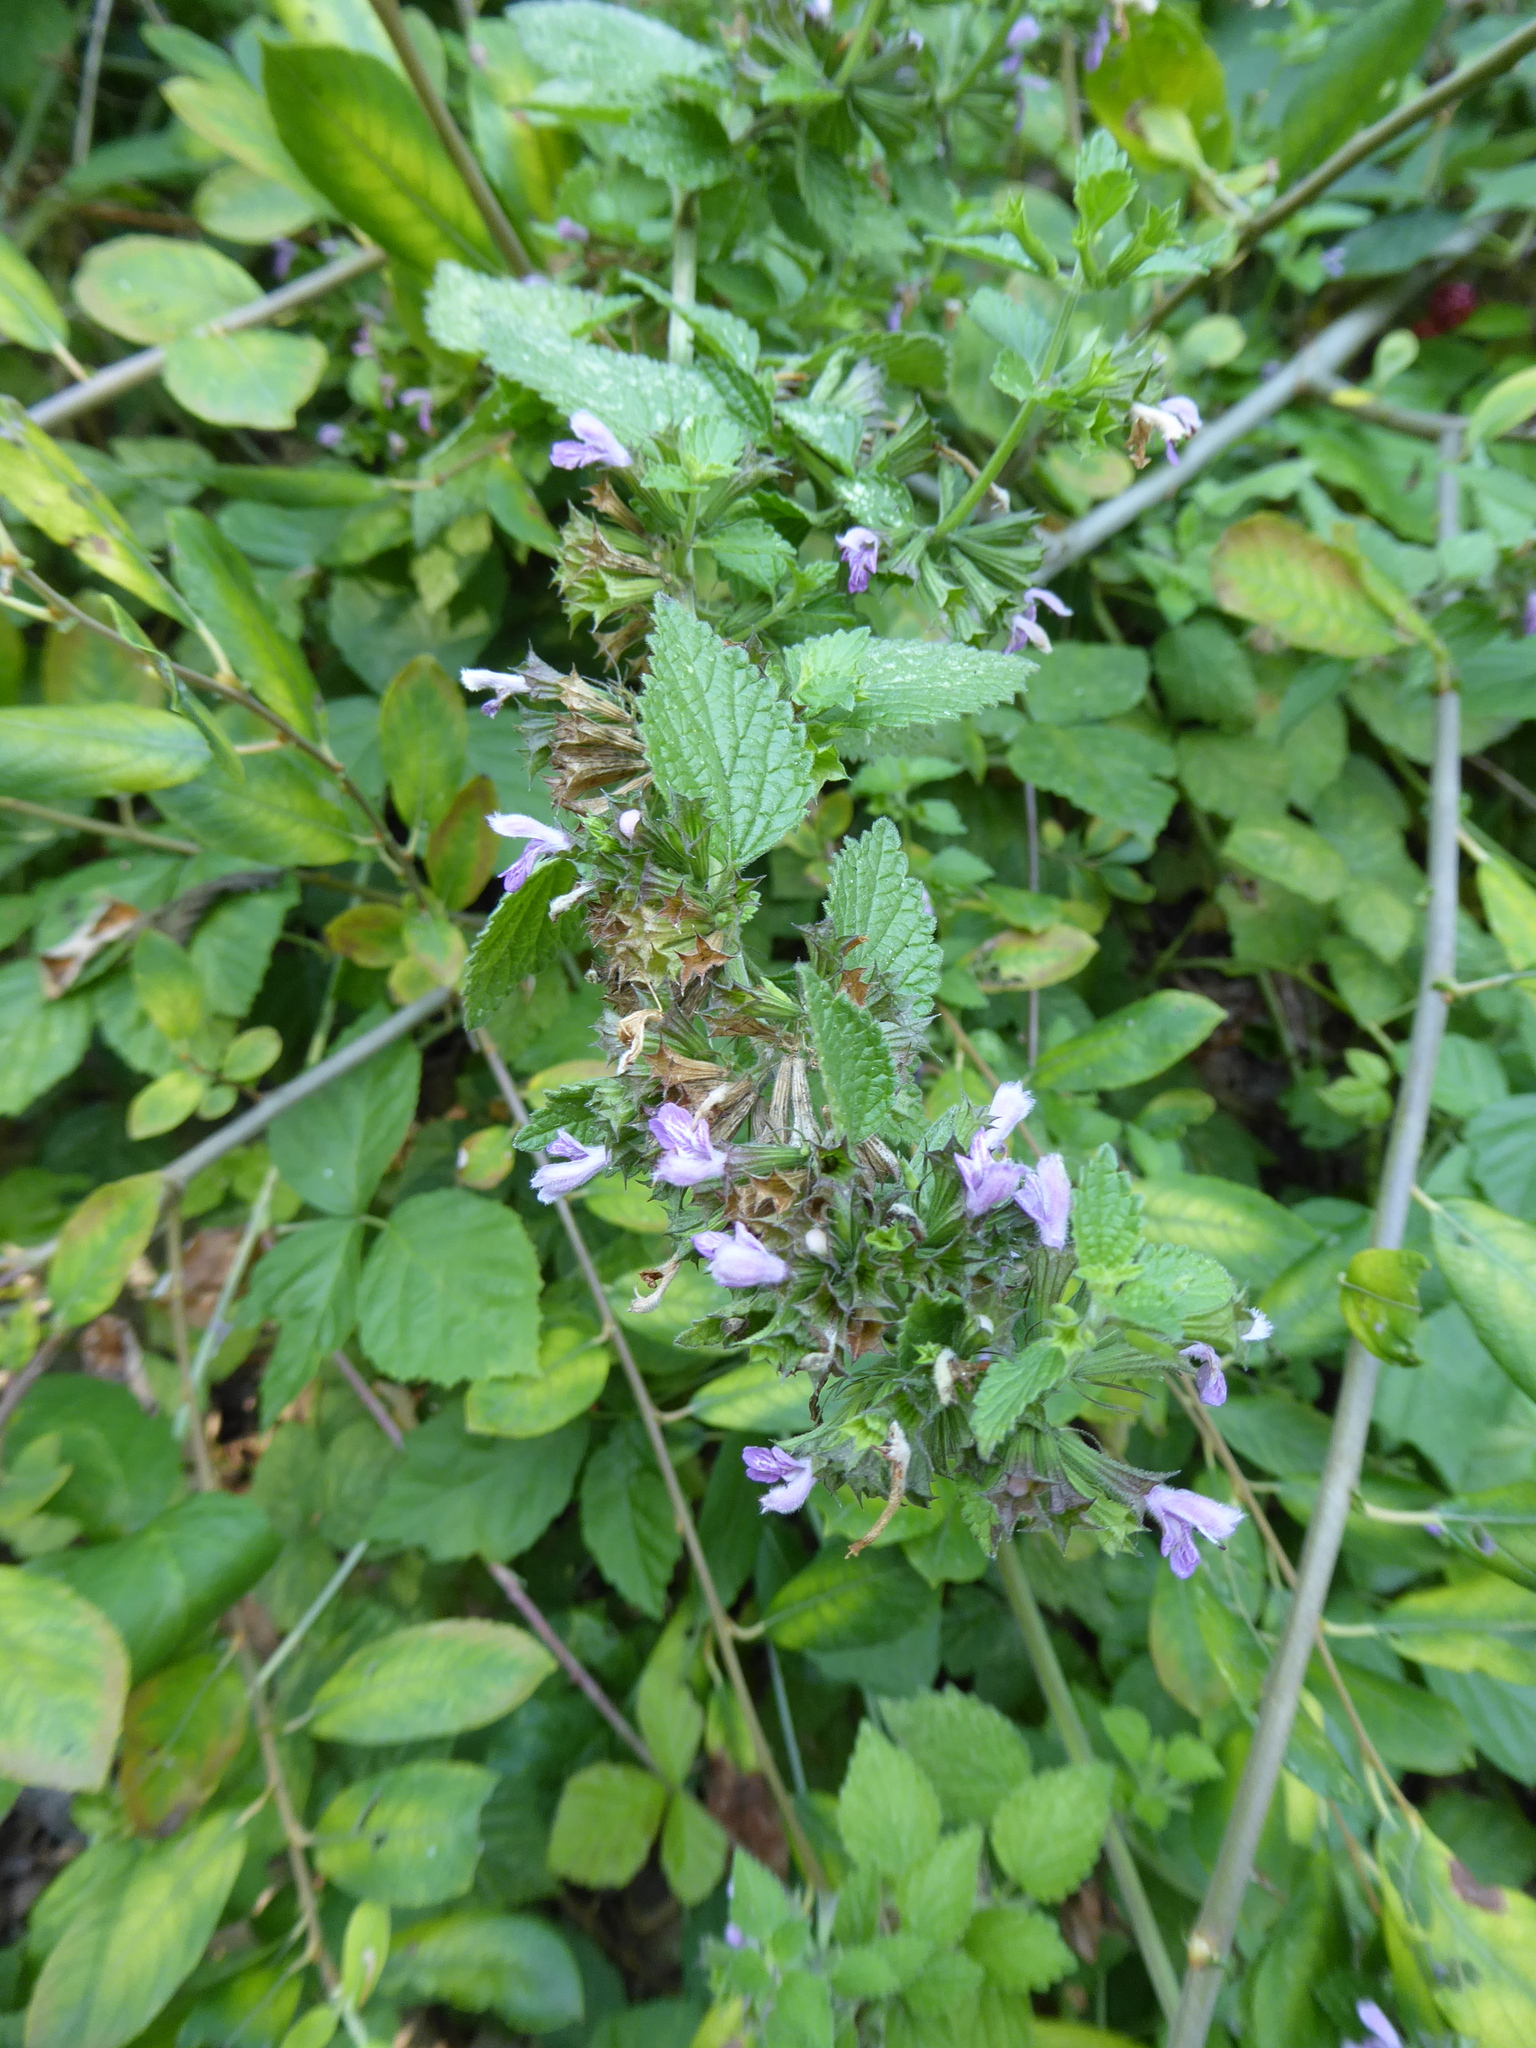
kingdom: Plantae
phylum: Tracheophyta
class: Magnoliopsida
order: Lamiales
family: Lamiaceae
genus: Ballota
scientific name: Ballota nigra
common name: Black horehound
